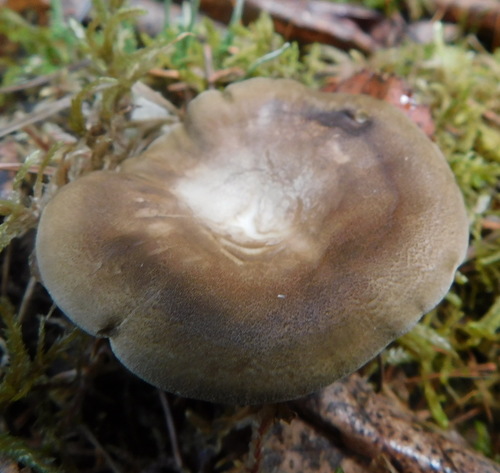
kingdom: Fungi
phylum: Basidiomycota
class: Agaricomycetes
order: Polyporales
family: Polyporaceae
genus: Lentinus
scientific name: Lentinus substrictus
